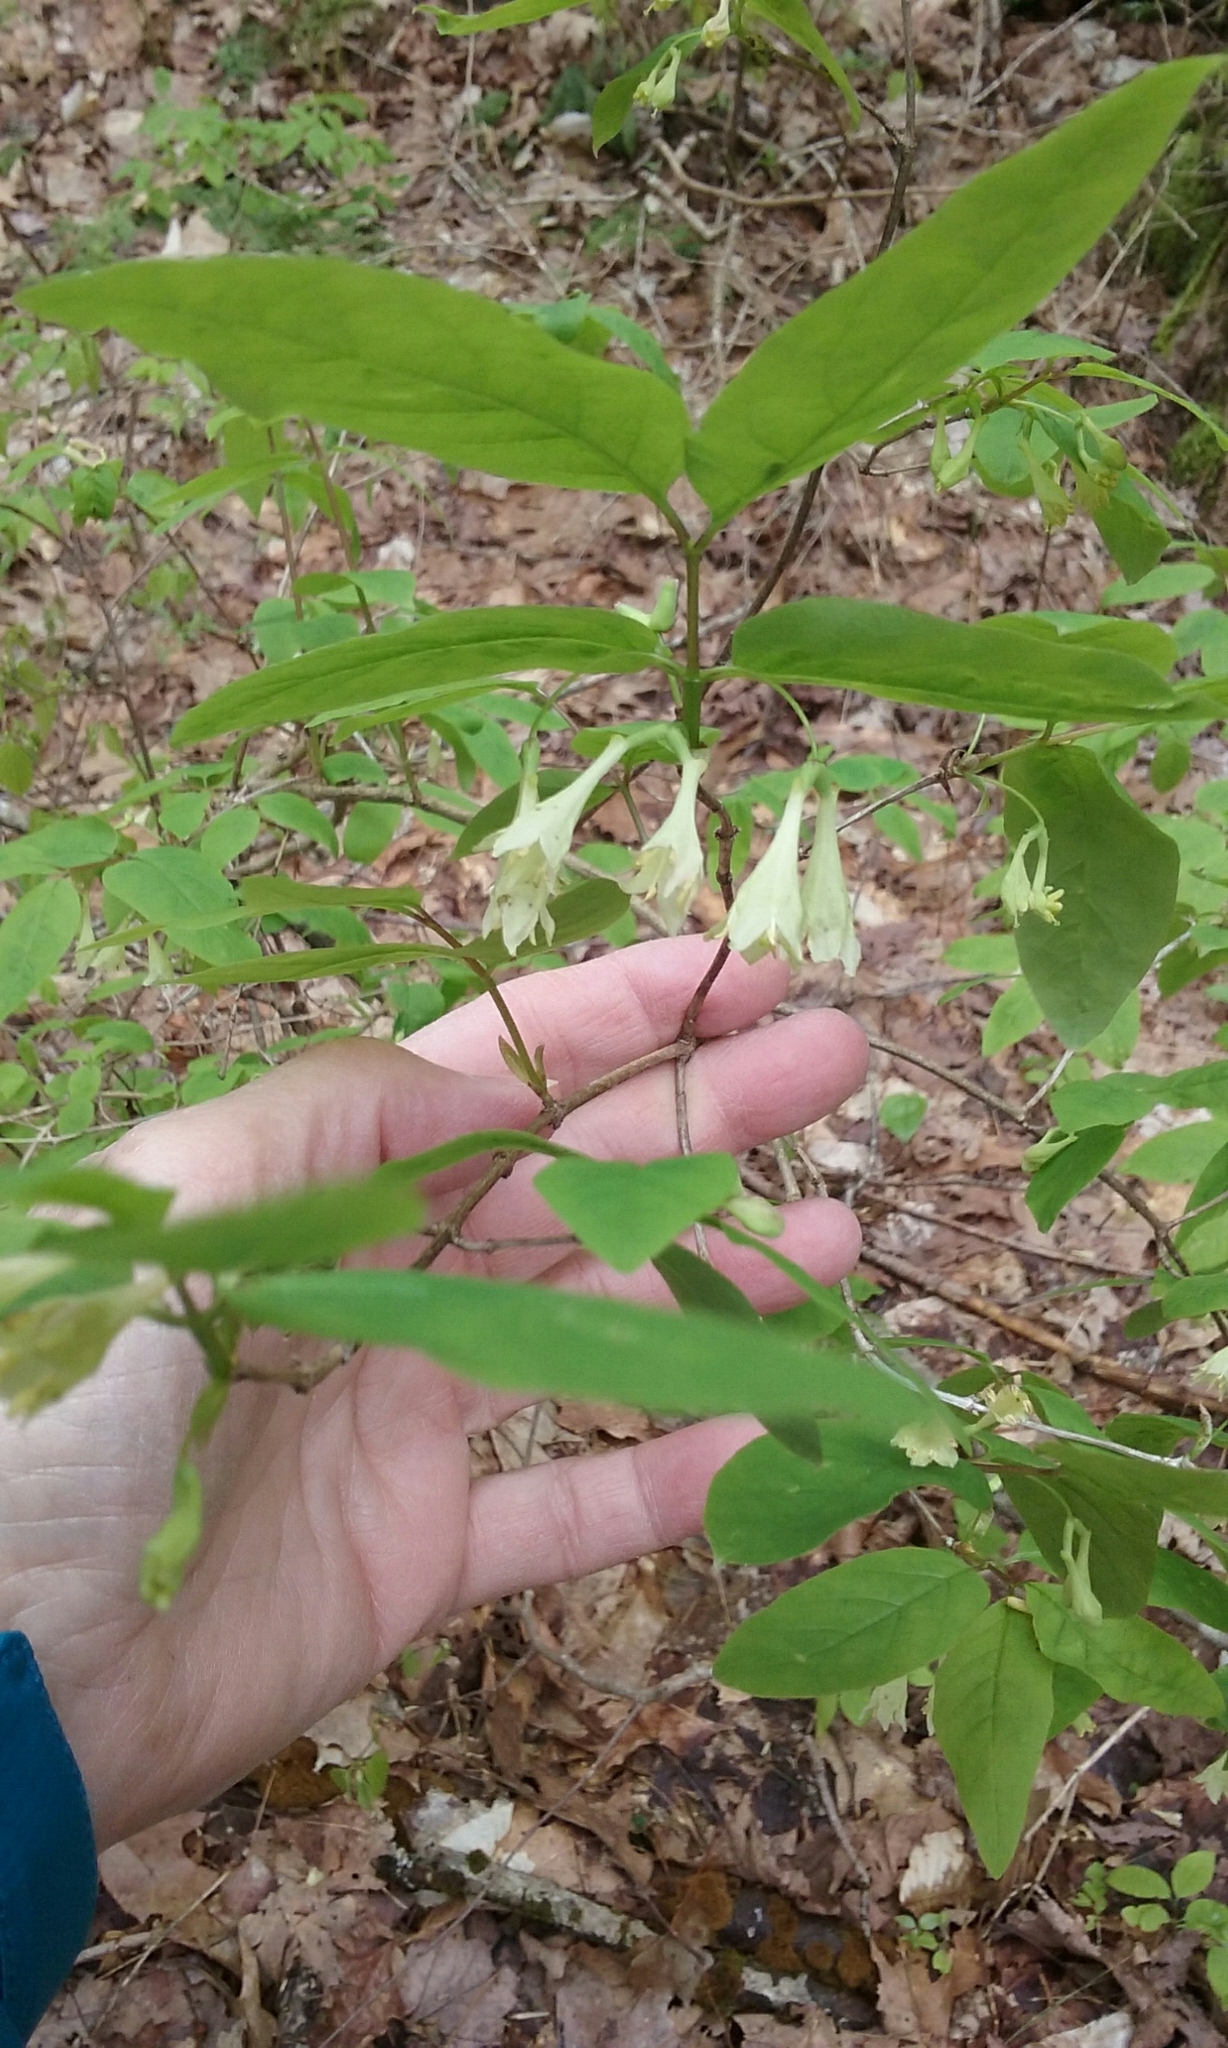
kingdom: Plantae
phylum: Tracheophyta
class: Magnoliopsida
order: Dipsacales
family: Caprifoliaceae
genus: Lonicera
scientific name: Lonicera canadensis
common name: American fly-honeysuckle
